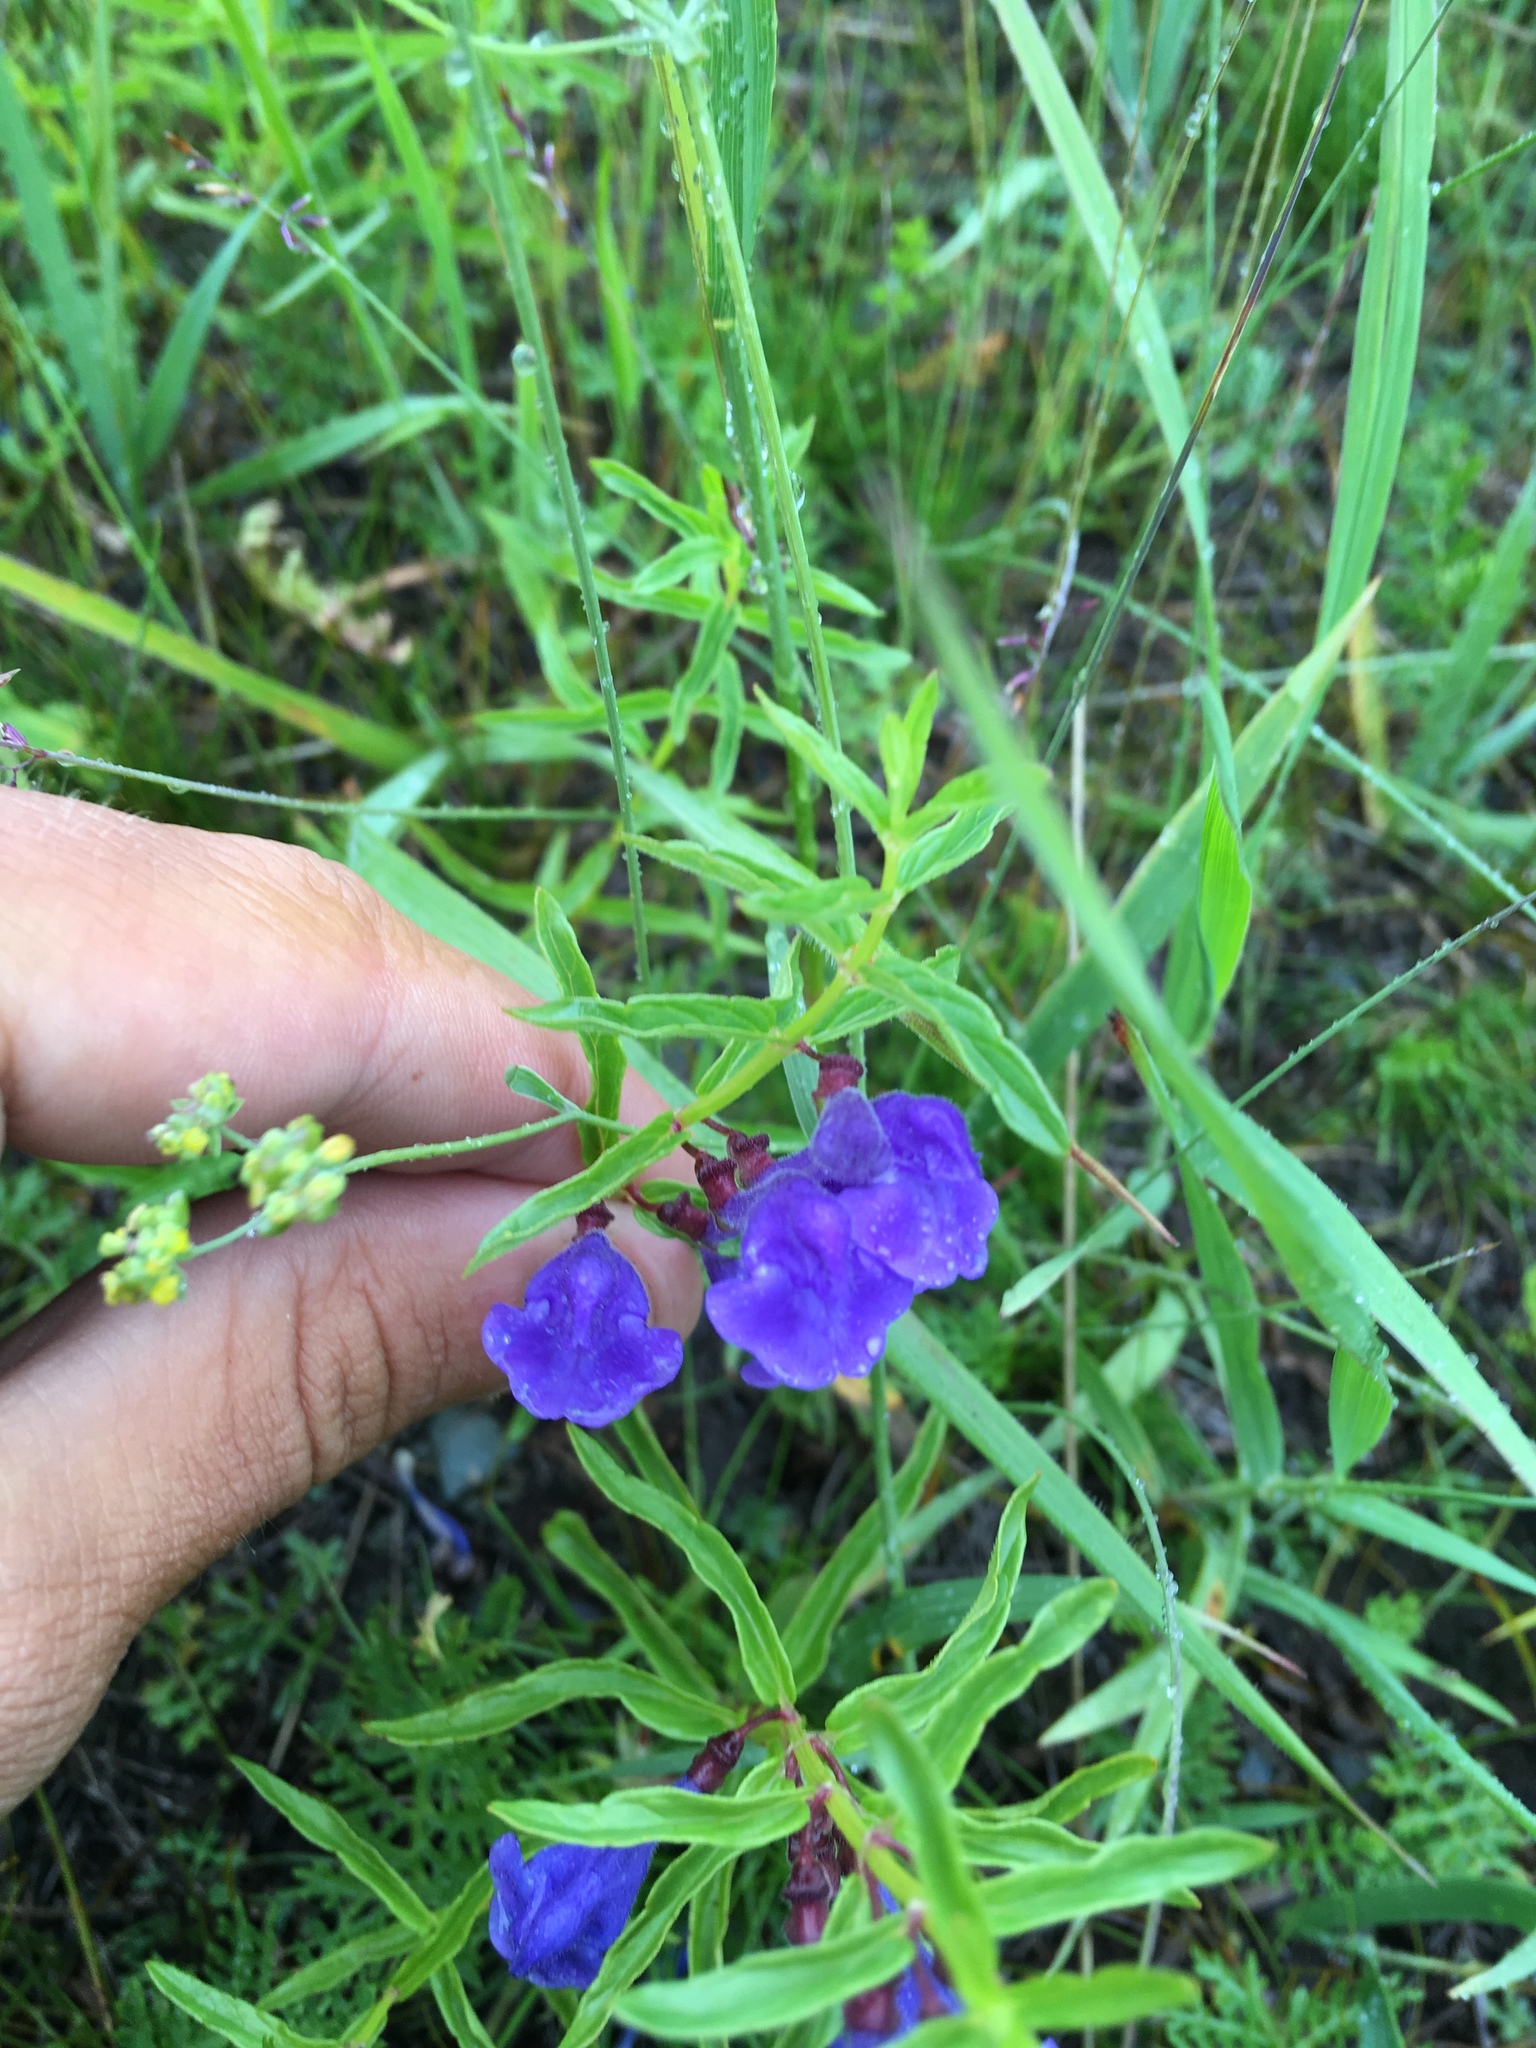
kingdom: Plantae
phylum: Tracheophyta
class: Magnoliopsida
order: Lamiales
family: Lamiaceae
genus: Scutellaria
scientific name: Scutellaria scordiifolia
